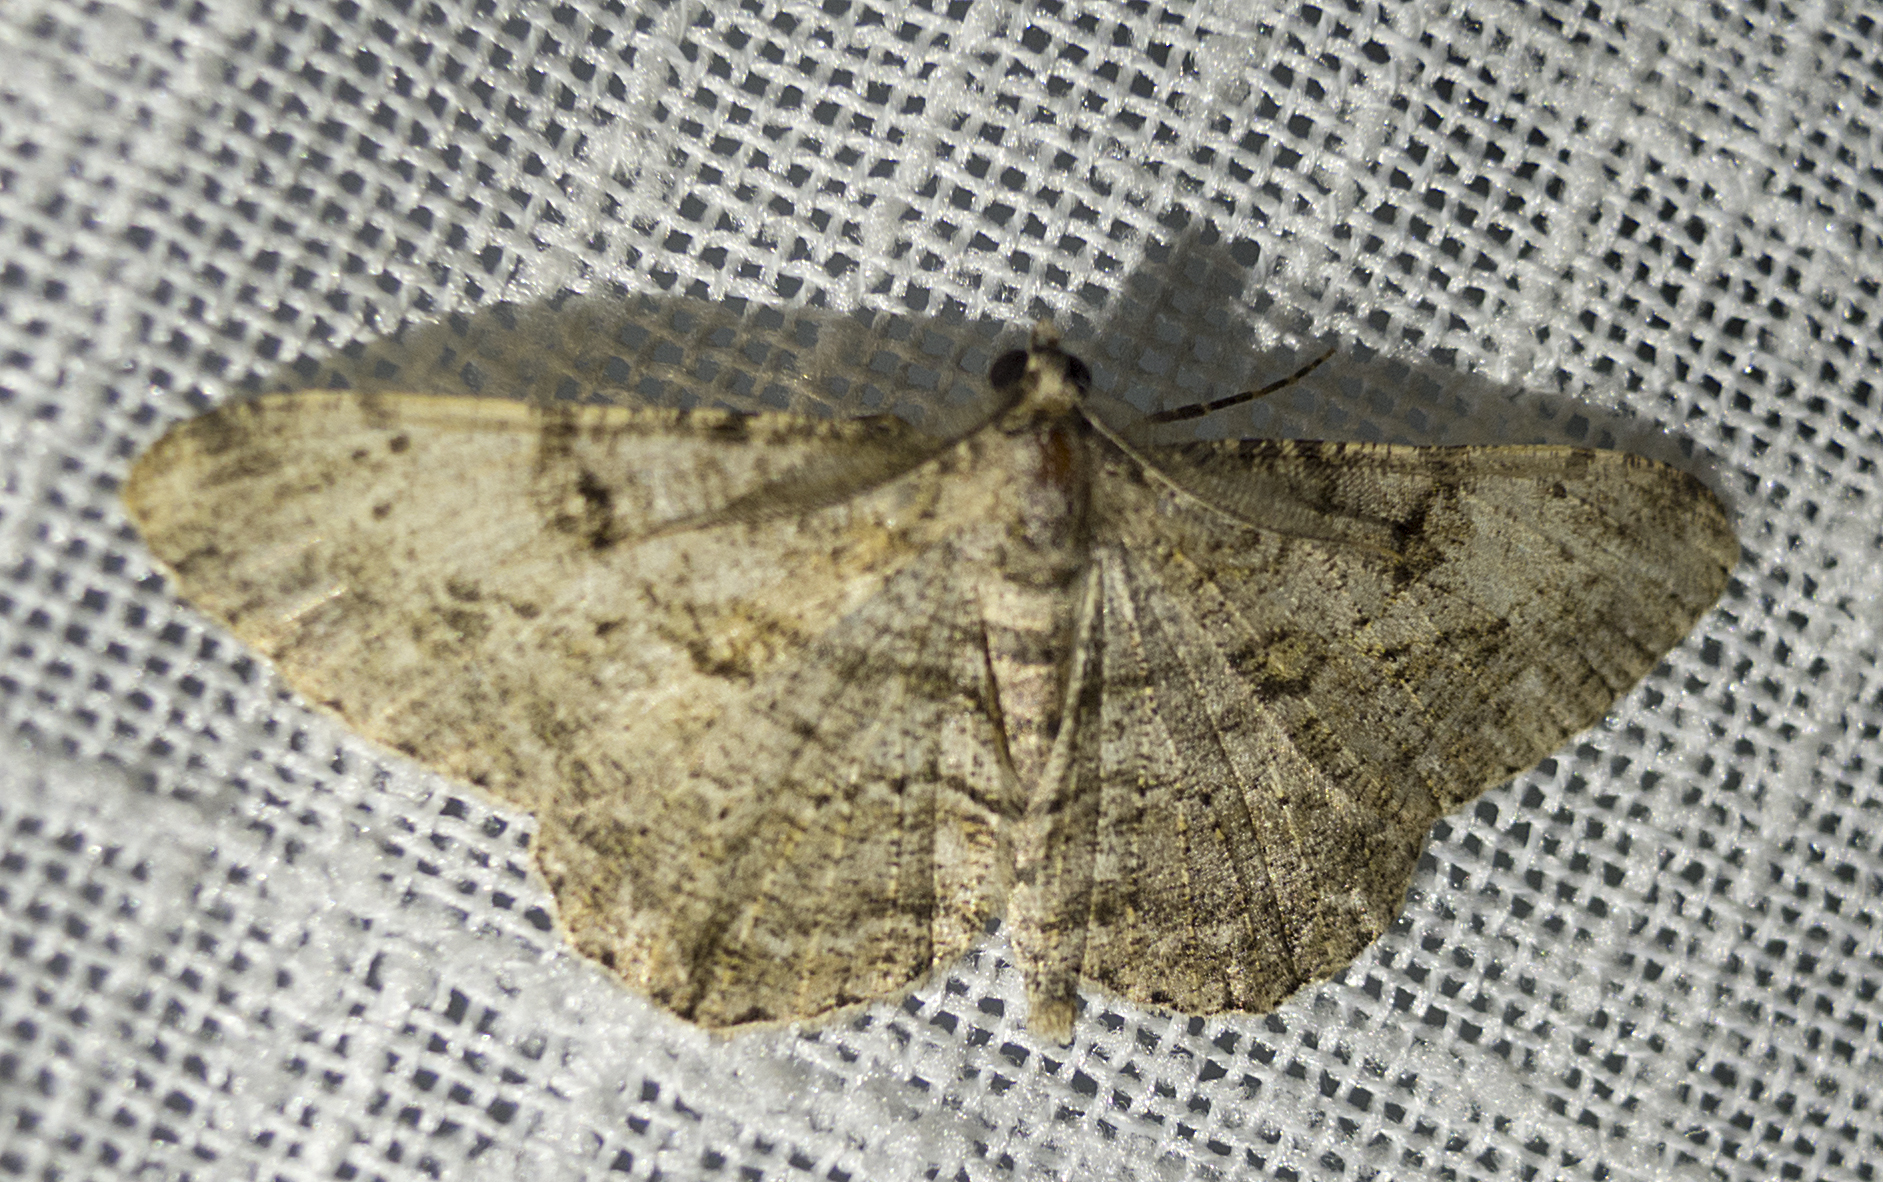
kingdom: Animalia
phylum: Arthropoda
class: Insecta
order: Lepidoptera
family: Geometridae
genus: Peribatodes
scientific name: Peribatodes rhomboidaria
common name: Willow beauty
